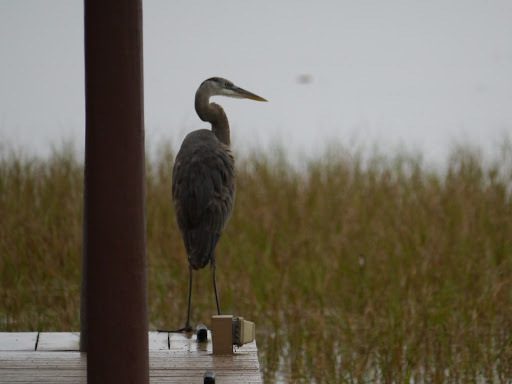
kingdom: Animalia
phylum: Chordata
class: Aves
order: Pelecaniformes
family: Ardeidae
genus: Ardea
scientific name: Ardea herodias
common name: Great blue heron
